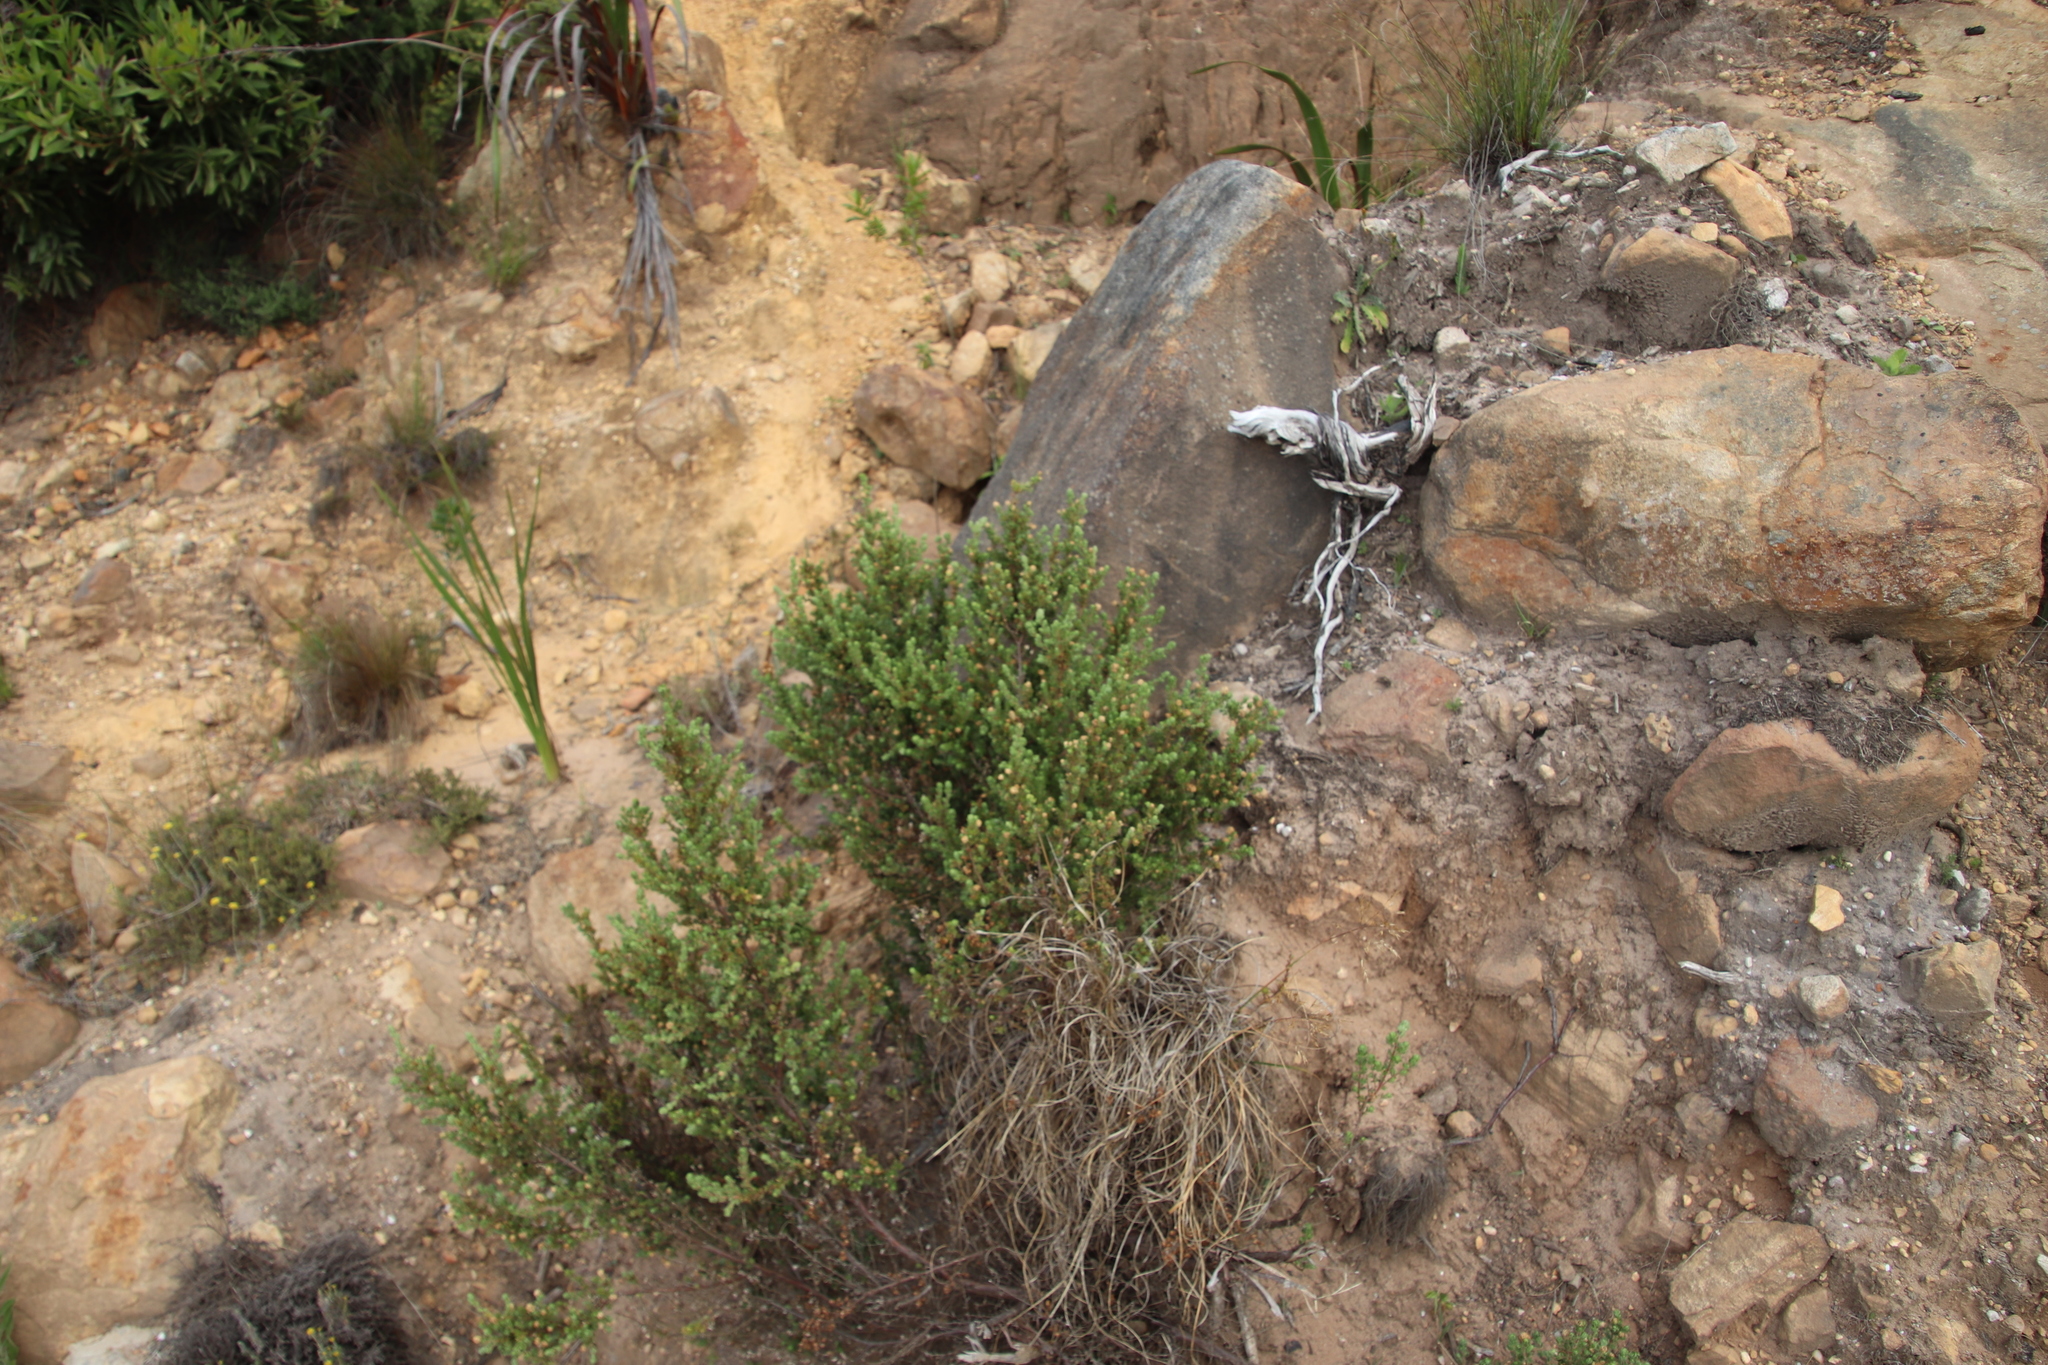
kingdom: Plantae
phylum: Tracheophyta
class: Magnoliopsida
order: Rosales
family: Rosaceae
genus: Cliffortia
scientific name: Cliffortia polygonifolia
